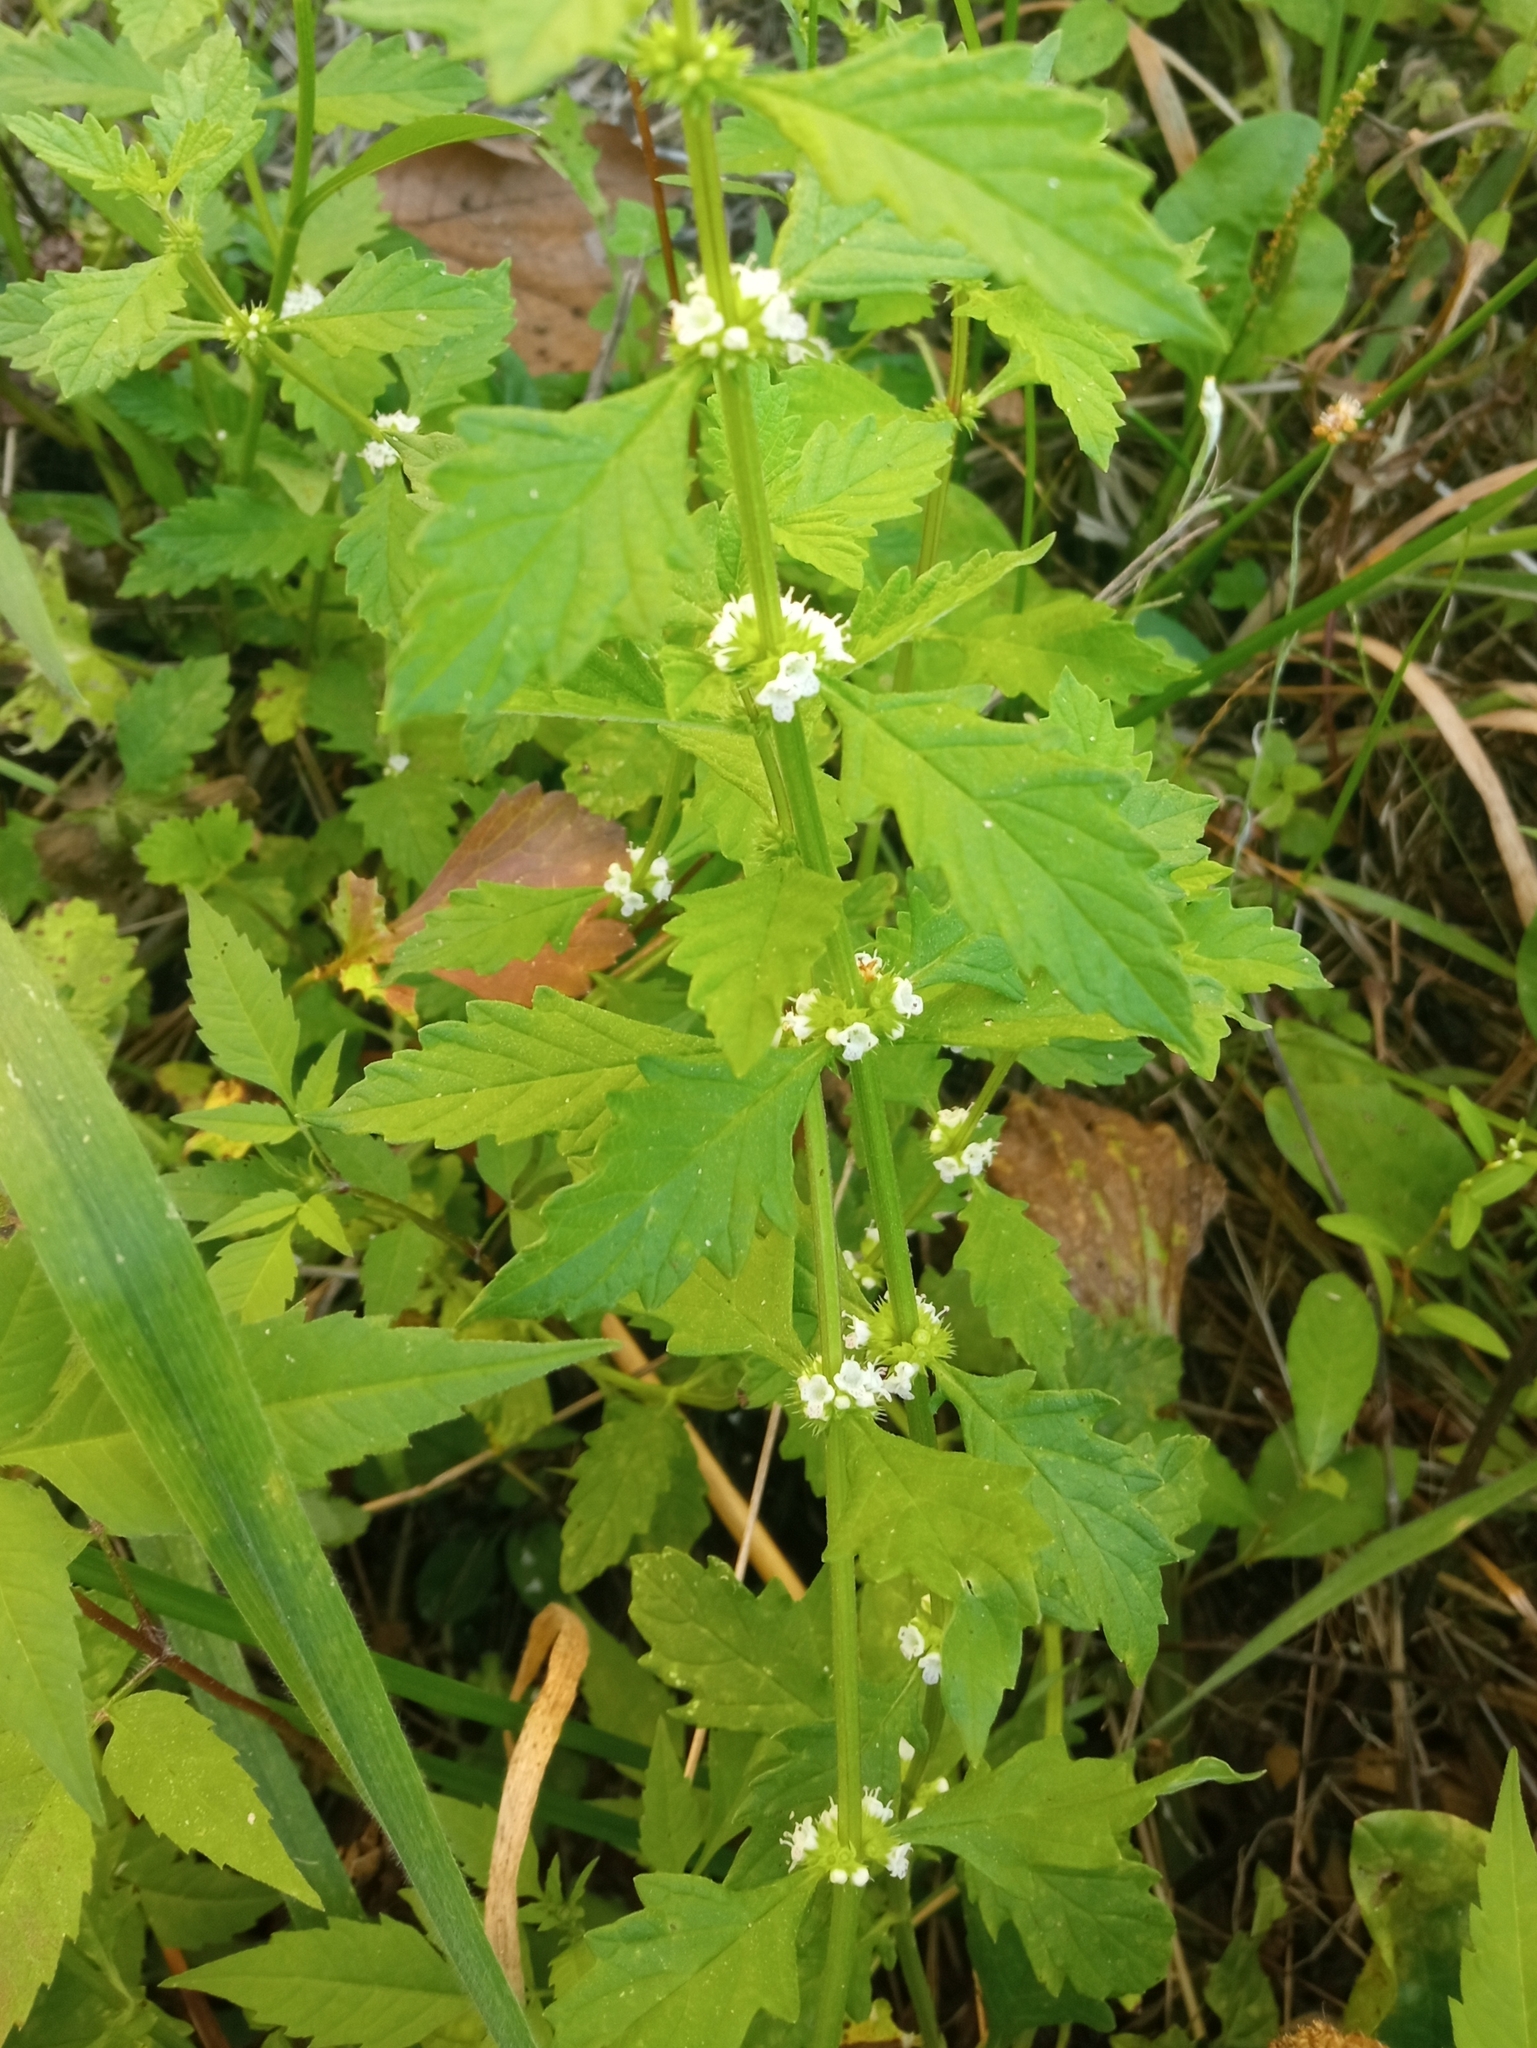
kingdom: Plantae
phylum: Tracheophyta
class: Magnoliopsida
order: Lamiales
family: Lamiaceae
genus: Lycopus
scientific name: Lycopus europaeus
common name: European bugleweed
